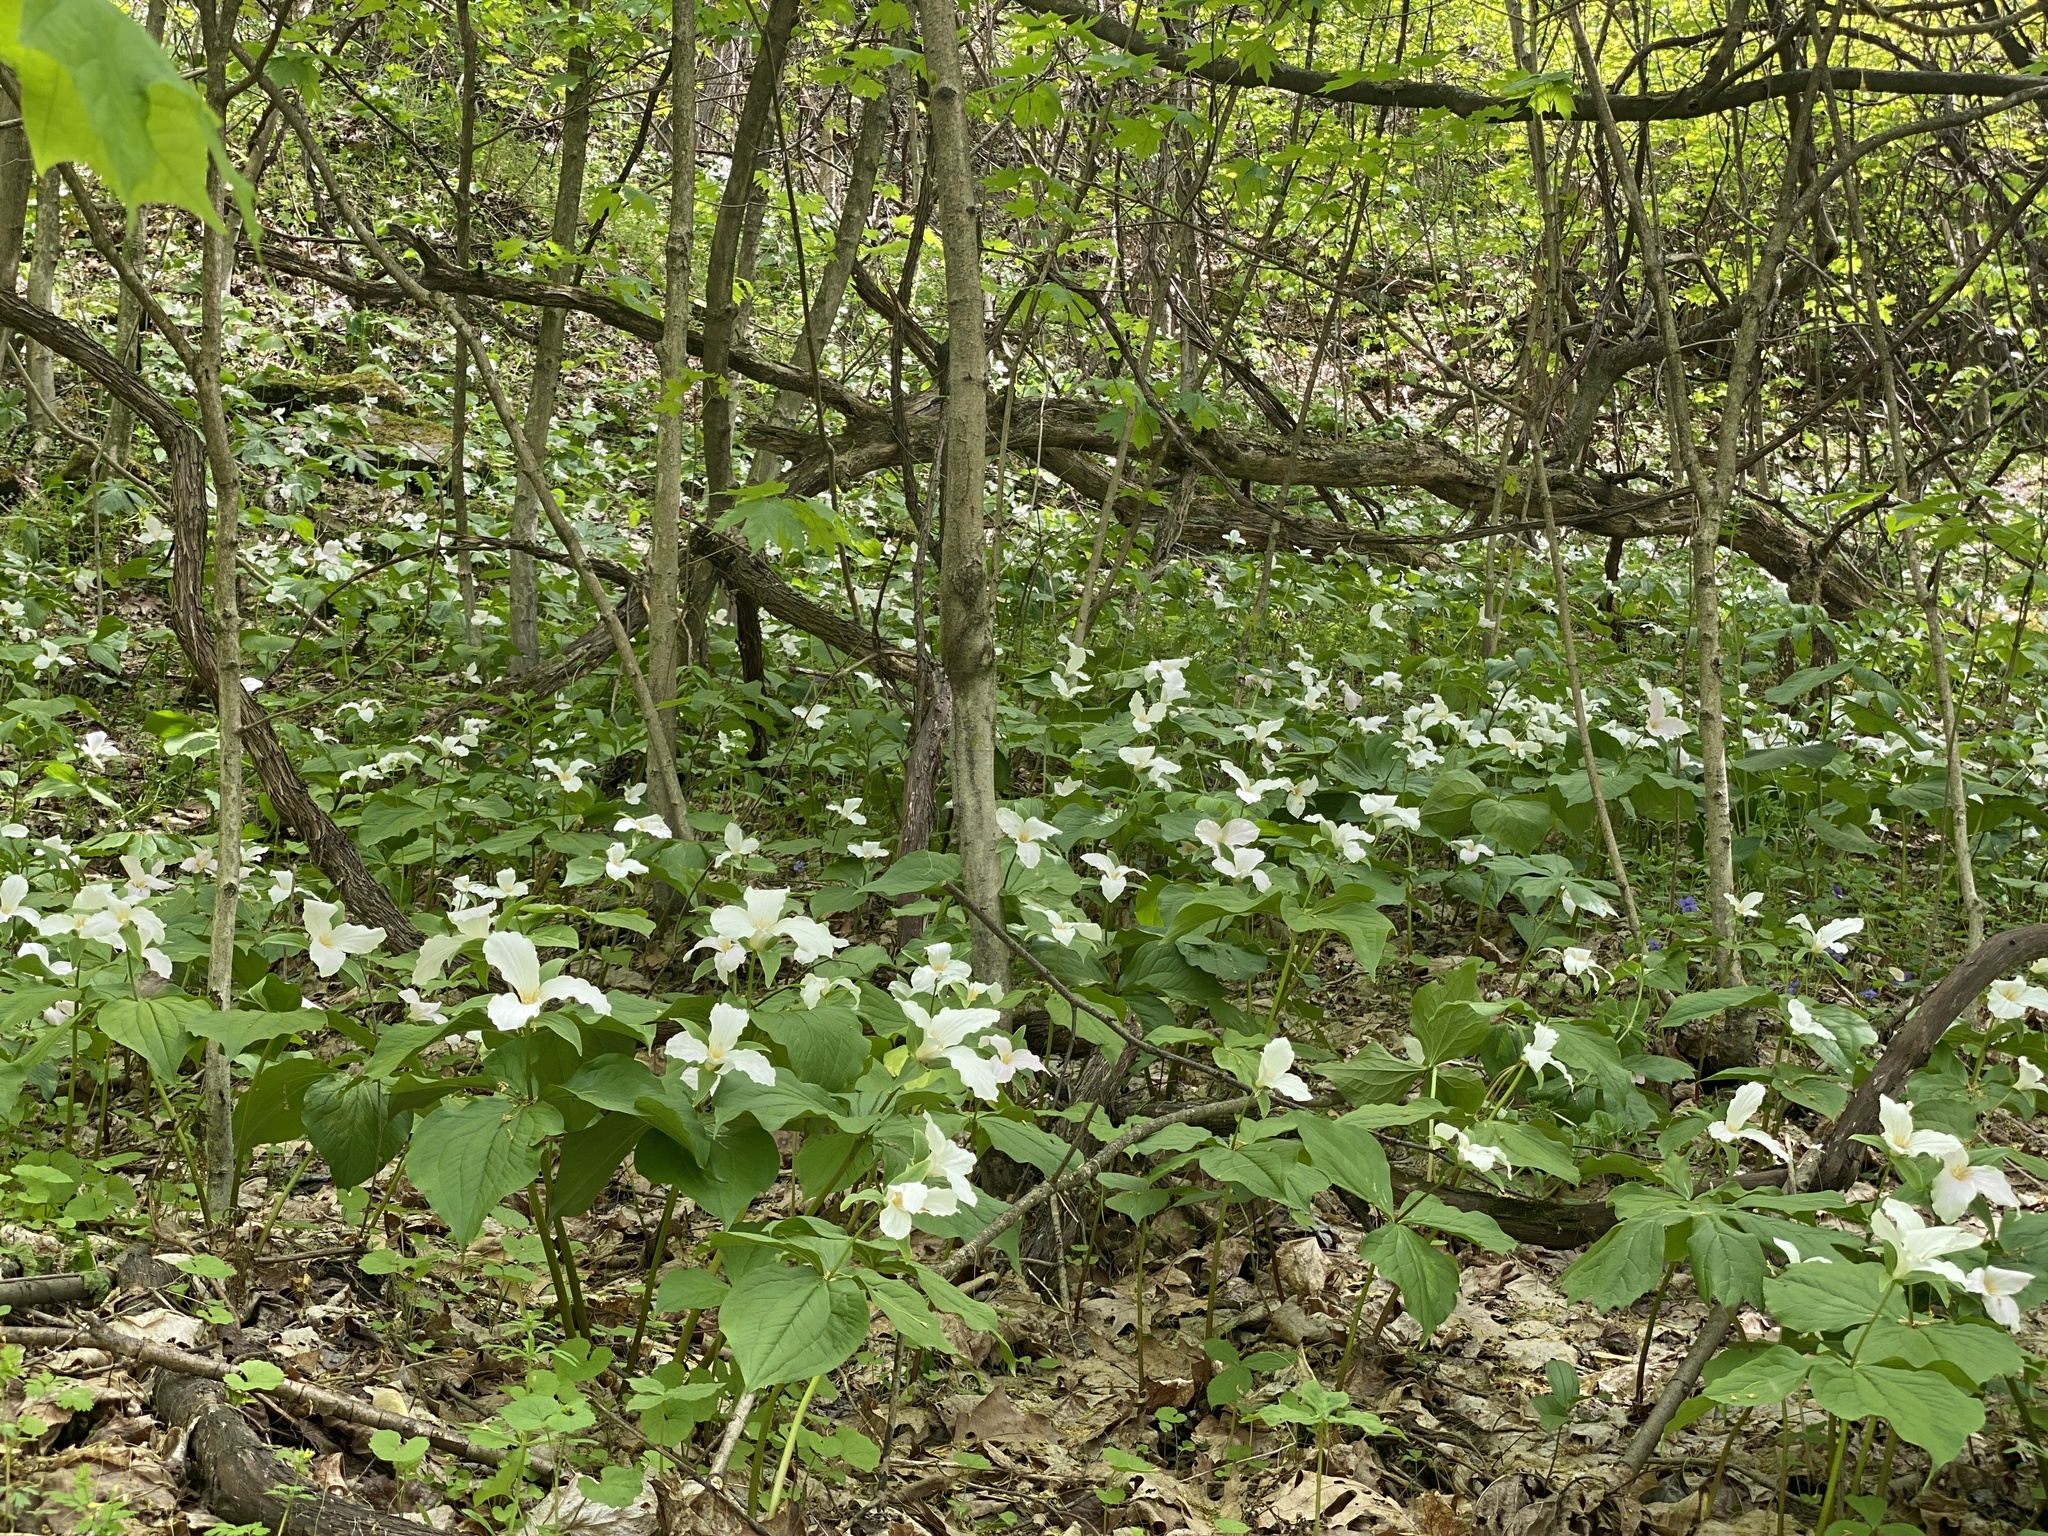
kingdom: Plantae
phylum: Tracheophyta
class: Liliopsida
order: Liliales
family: Melanthiaceae
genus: Trillium
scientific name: Trillium grandiflorum
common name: Great white trillium
